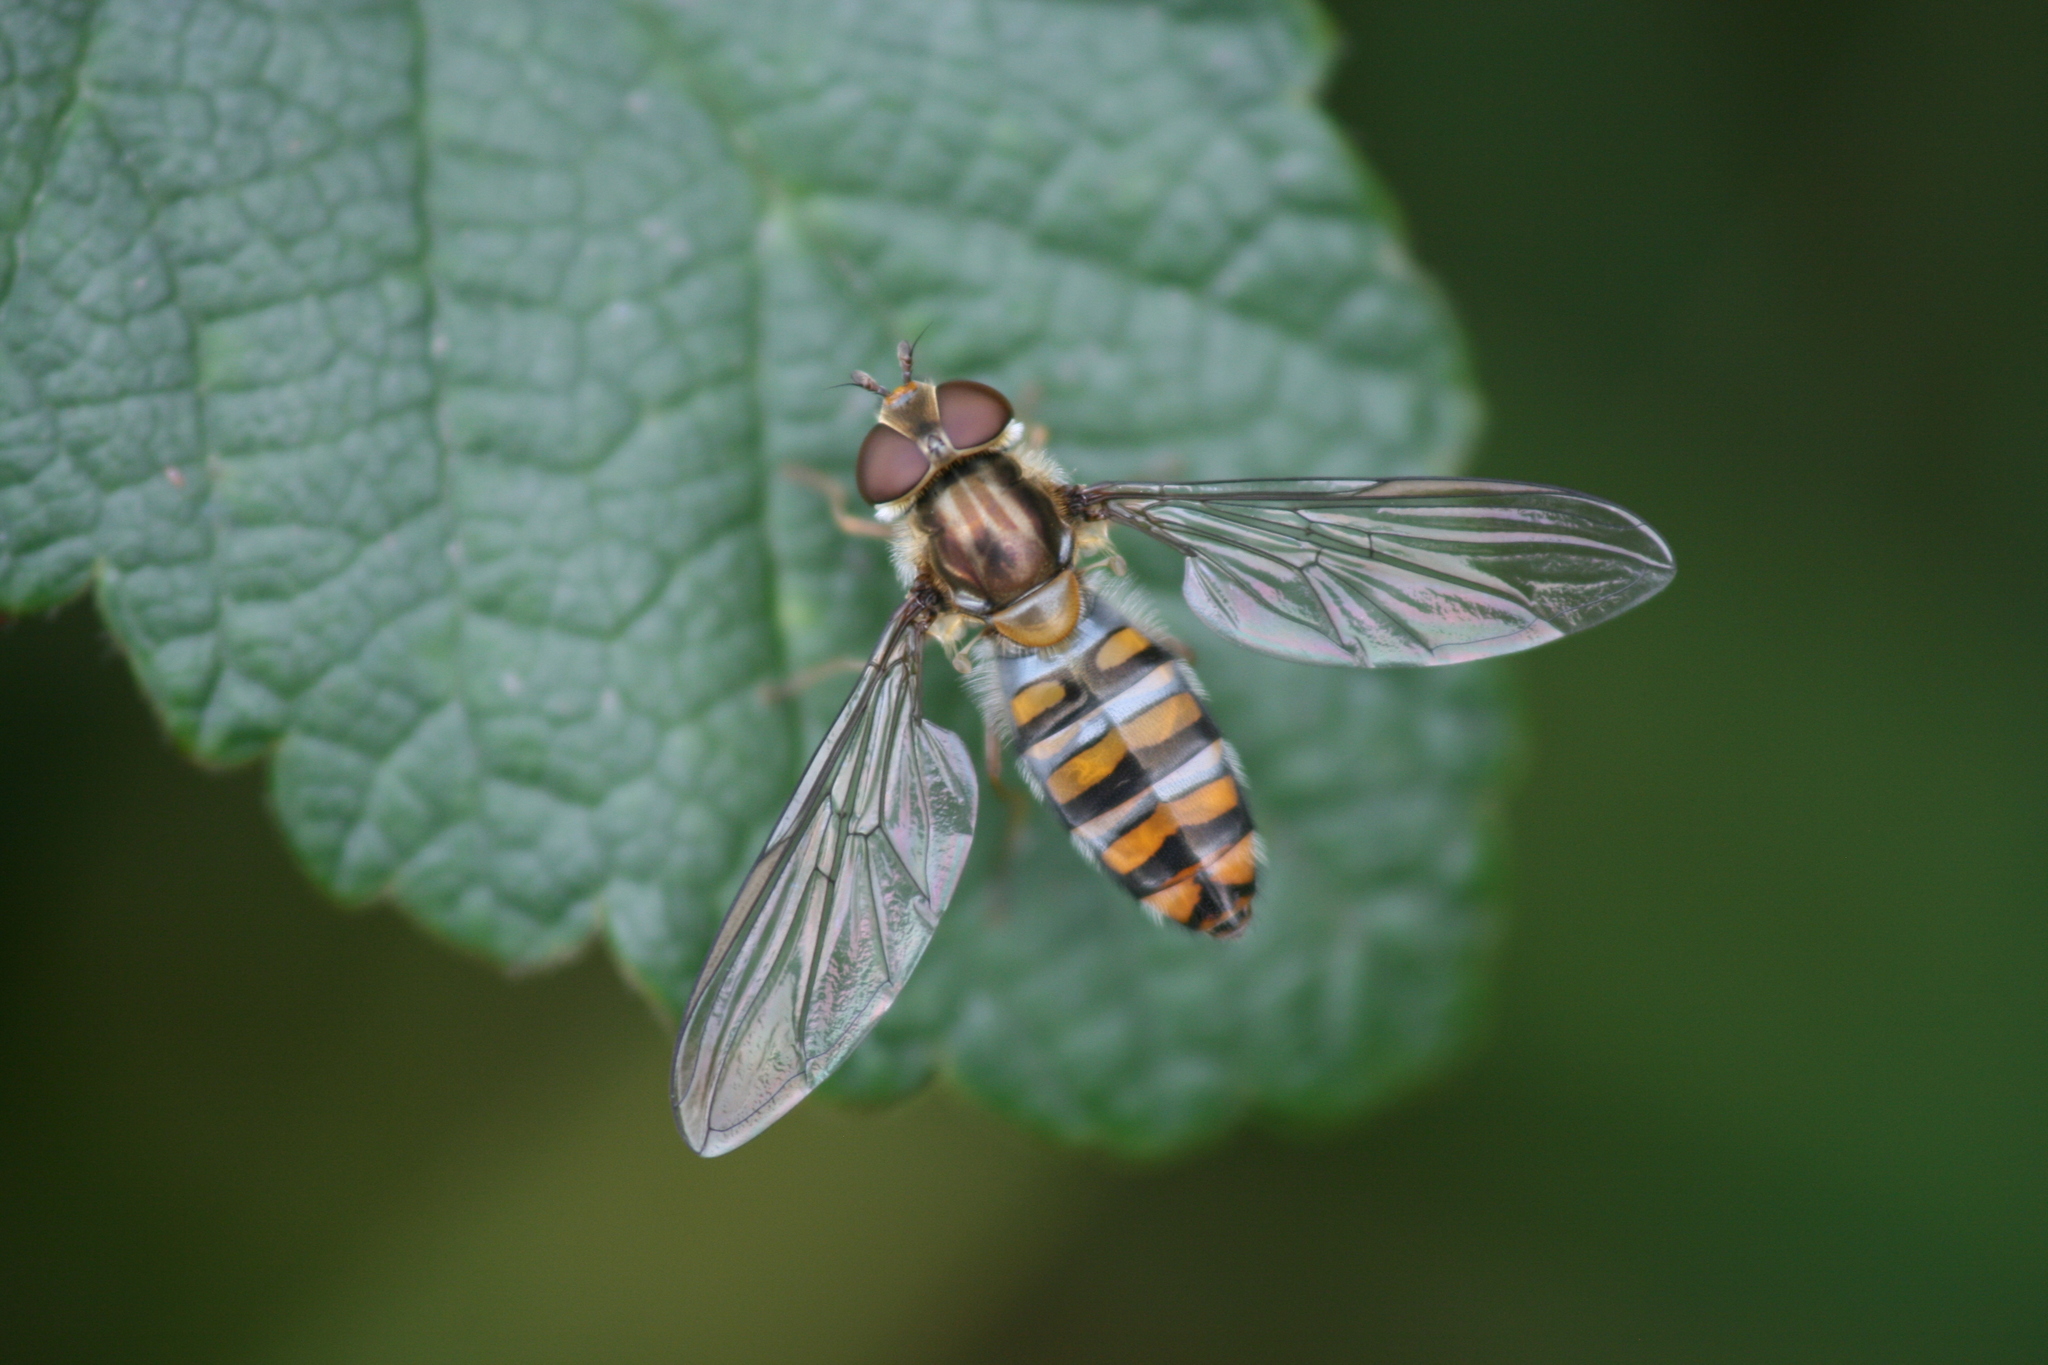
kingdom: Animalia
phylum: Arthropoda
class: Insecta
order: Diptera
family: Syrphidae
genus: Episyrphus
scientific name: Episyrphus balteatus
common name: Marmalade hoverfly
